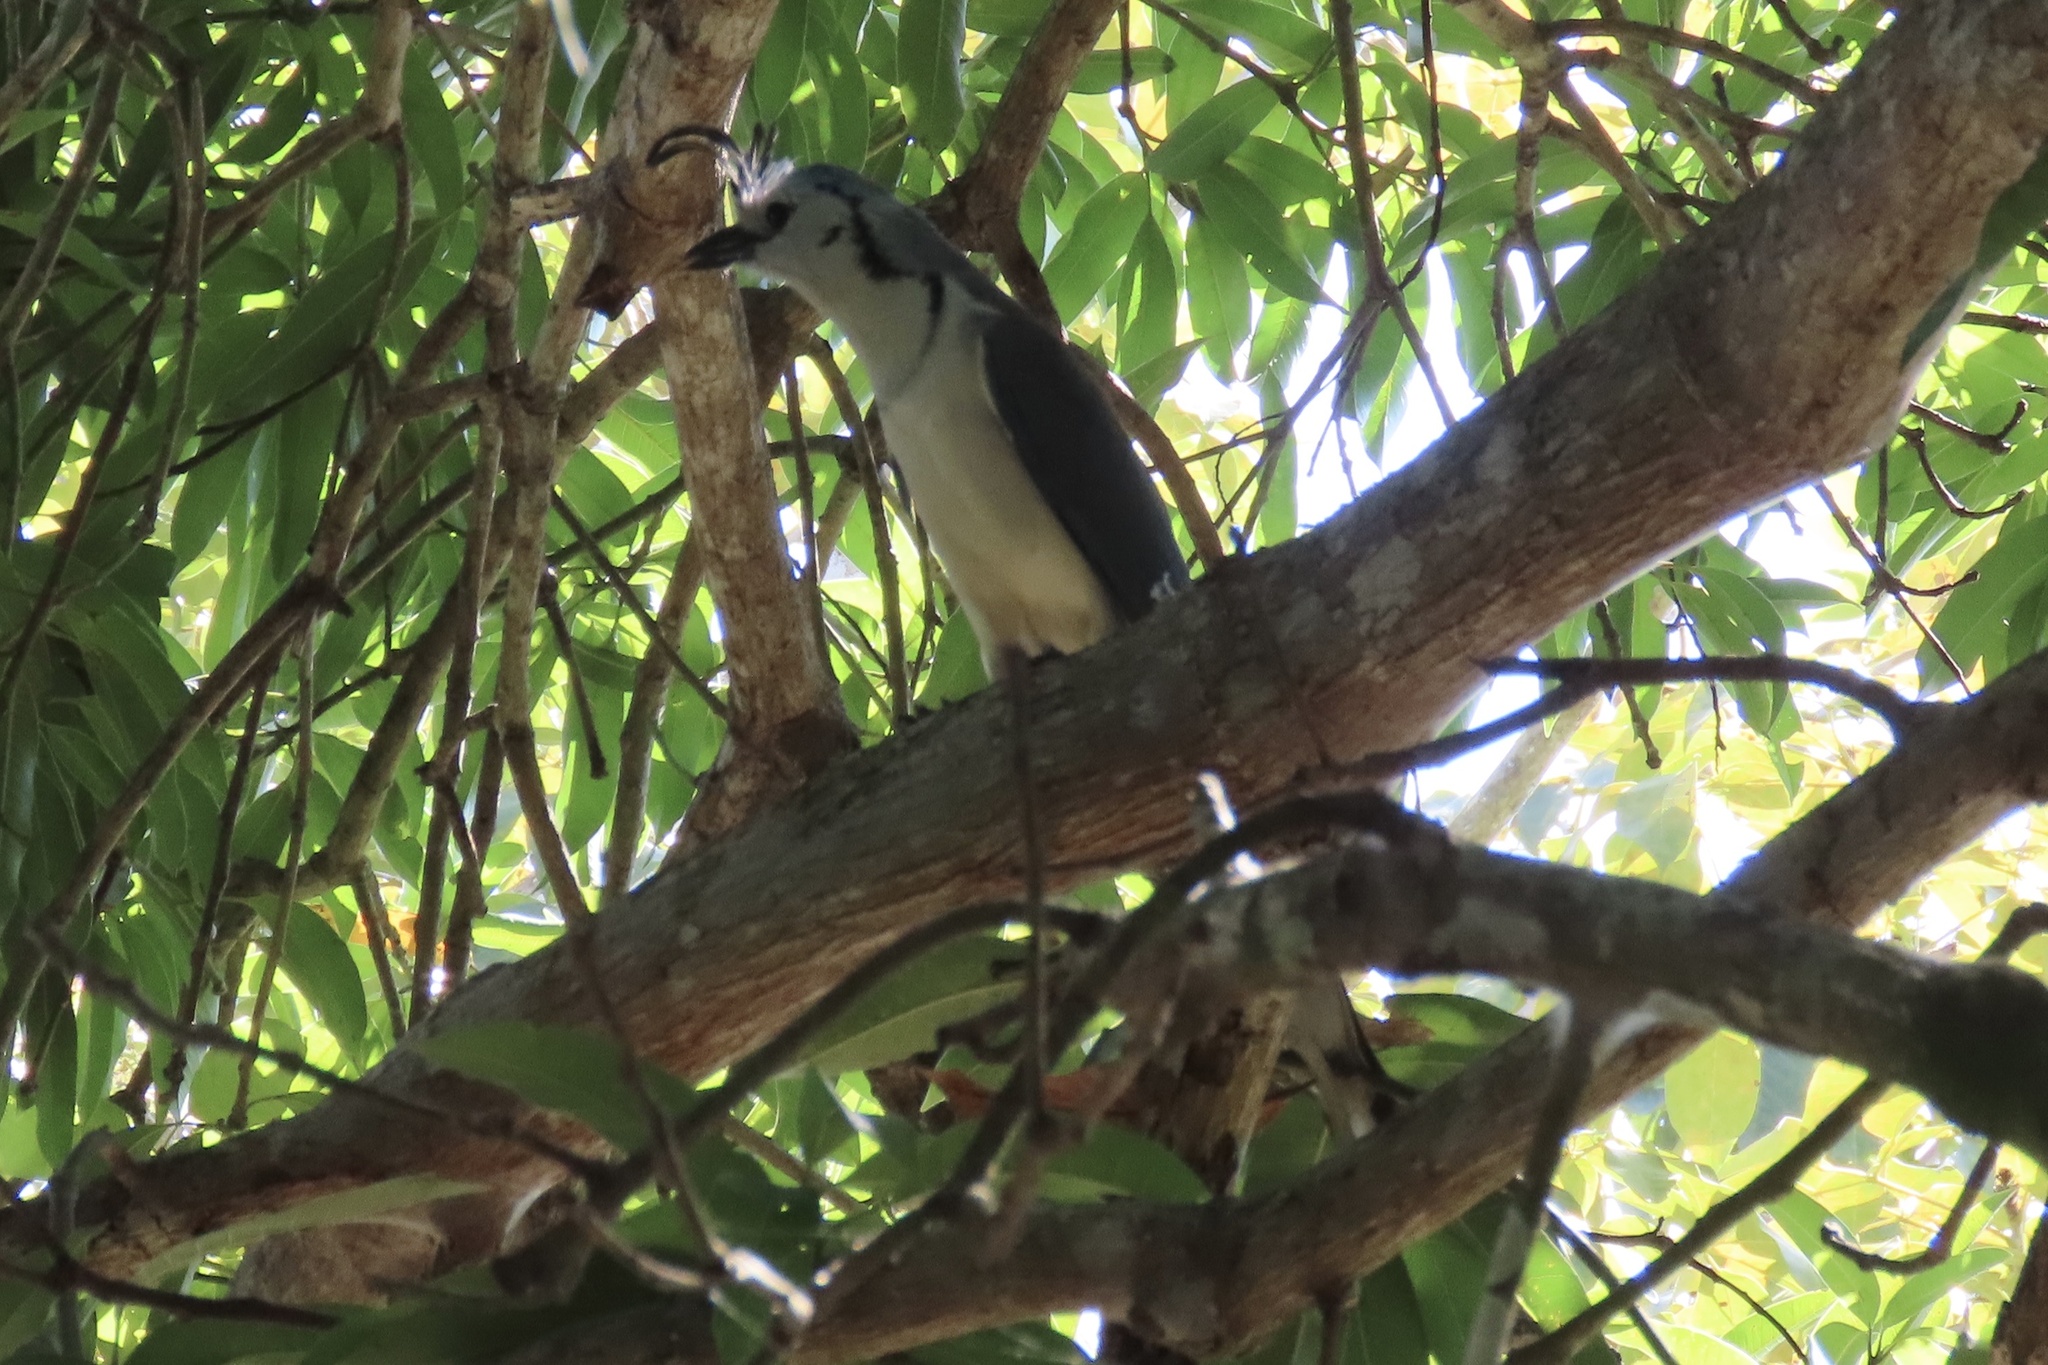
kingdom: Animalia
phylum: Chordata
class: Aves
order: Passeriformes
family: Corvidae
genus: Calocitta
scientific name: Calocitta formosa
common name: White-throated magpie-jay
